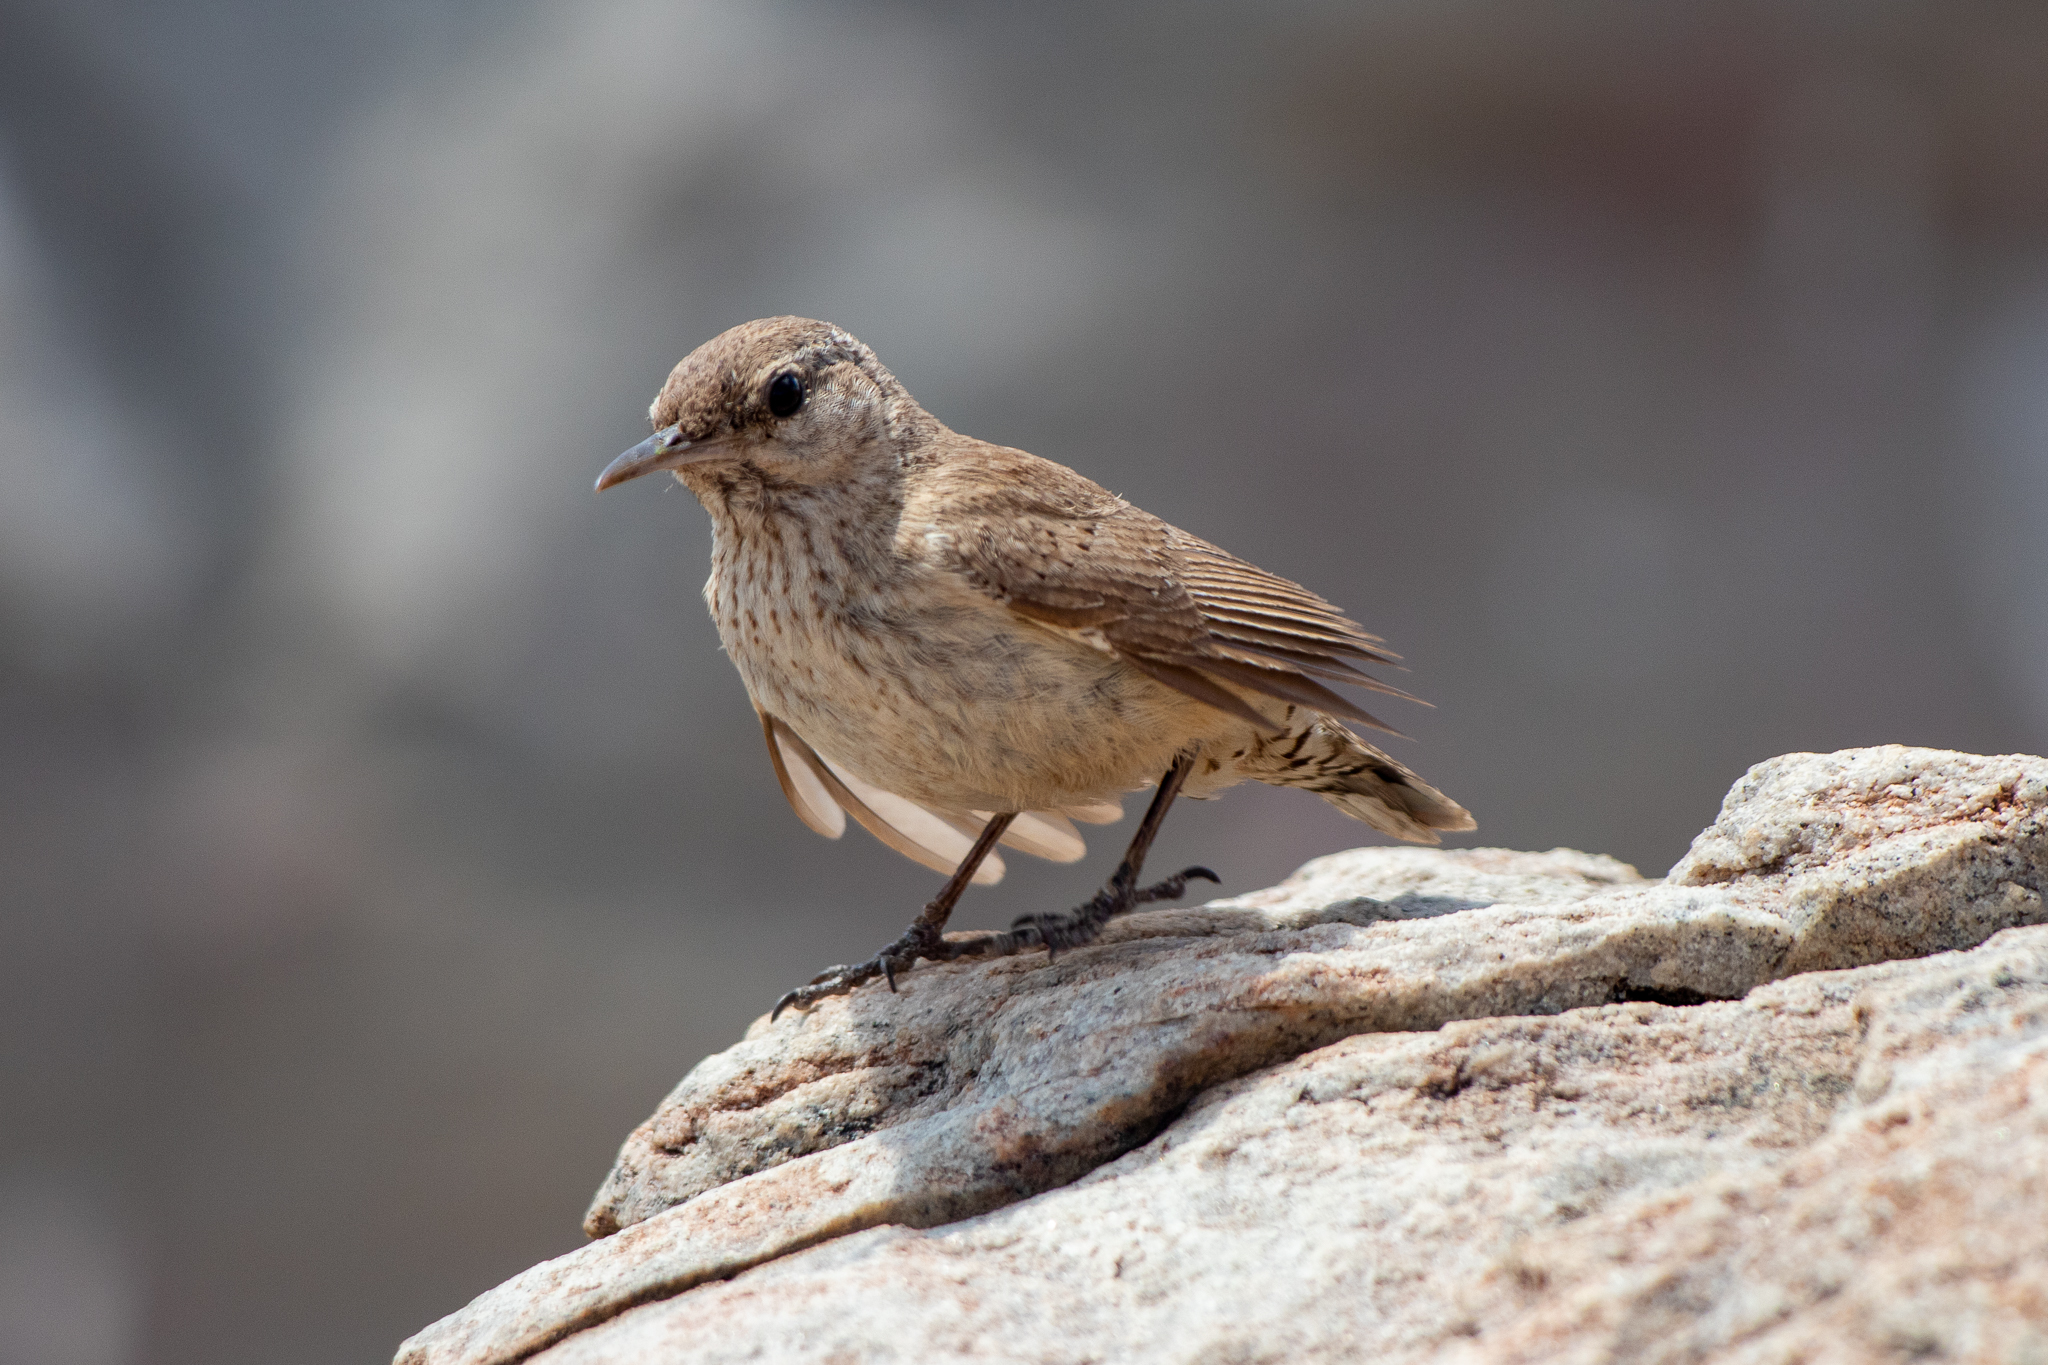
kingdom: Animalia
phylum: Chordata
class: Aves
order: Passeriformes
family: Troglodytidae
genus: Salpinctes
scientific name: Salpinctes obsoletus
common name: Rock wren
